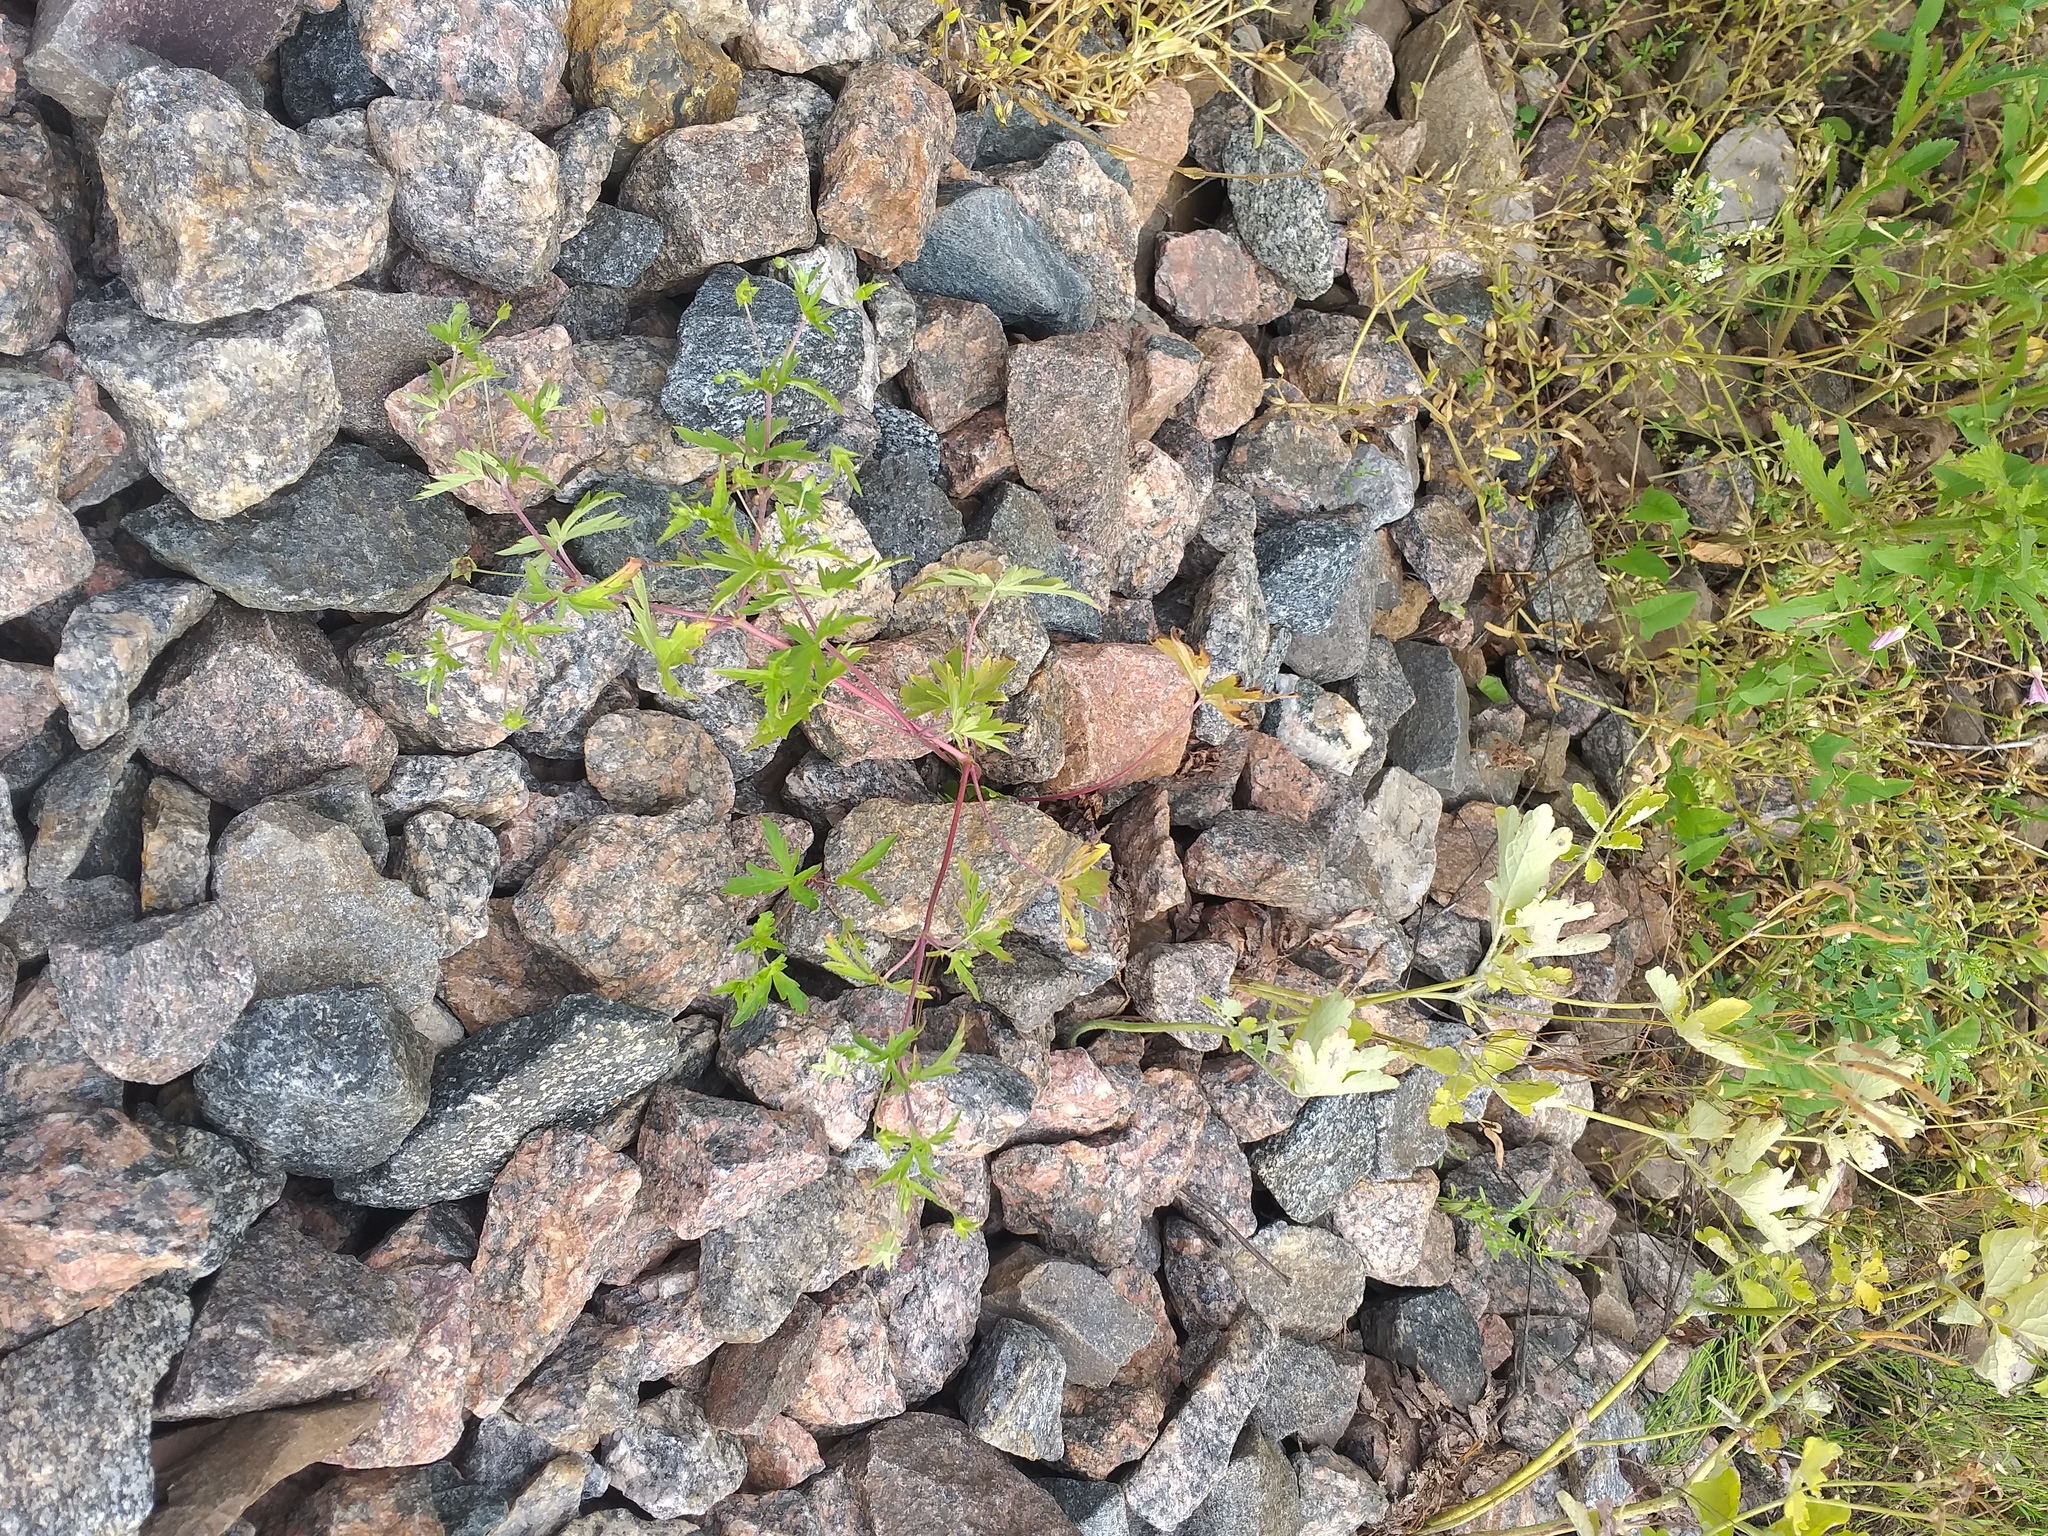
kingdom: Plantae
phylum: Tracheophyta
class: Magnoliopsida
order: Geraniales
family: Geraniaceae
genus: Geranium
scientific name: Geranium sibiricum
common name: Siberian crane's-bill
